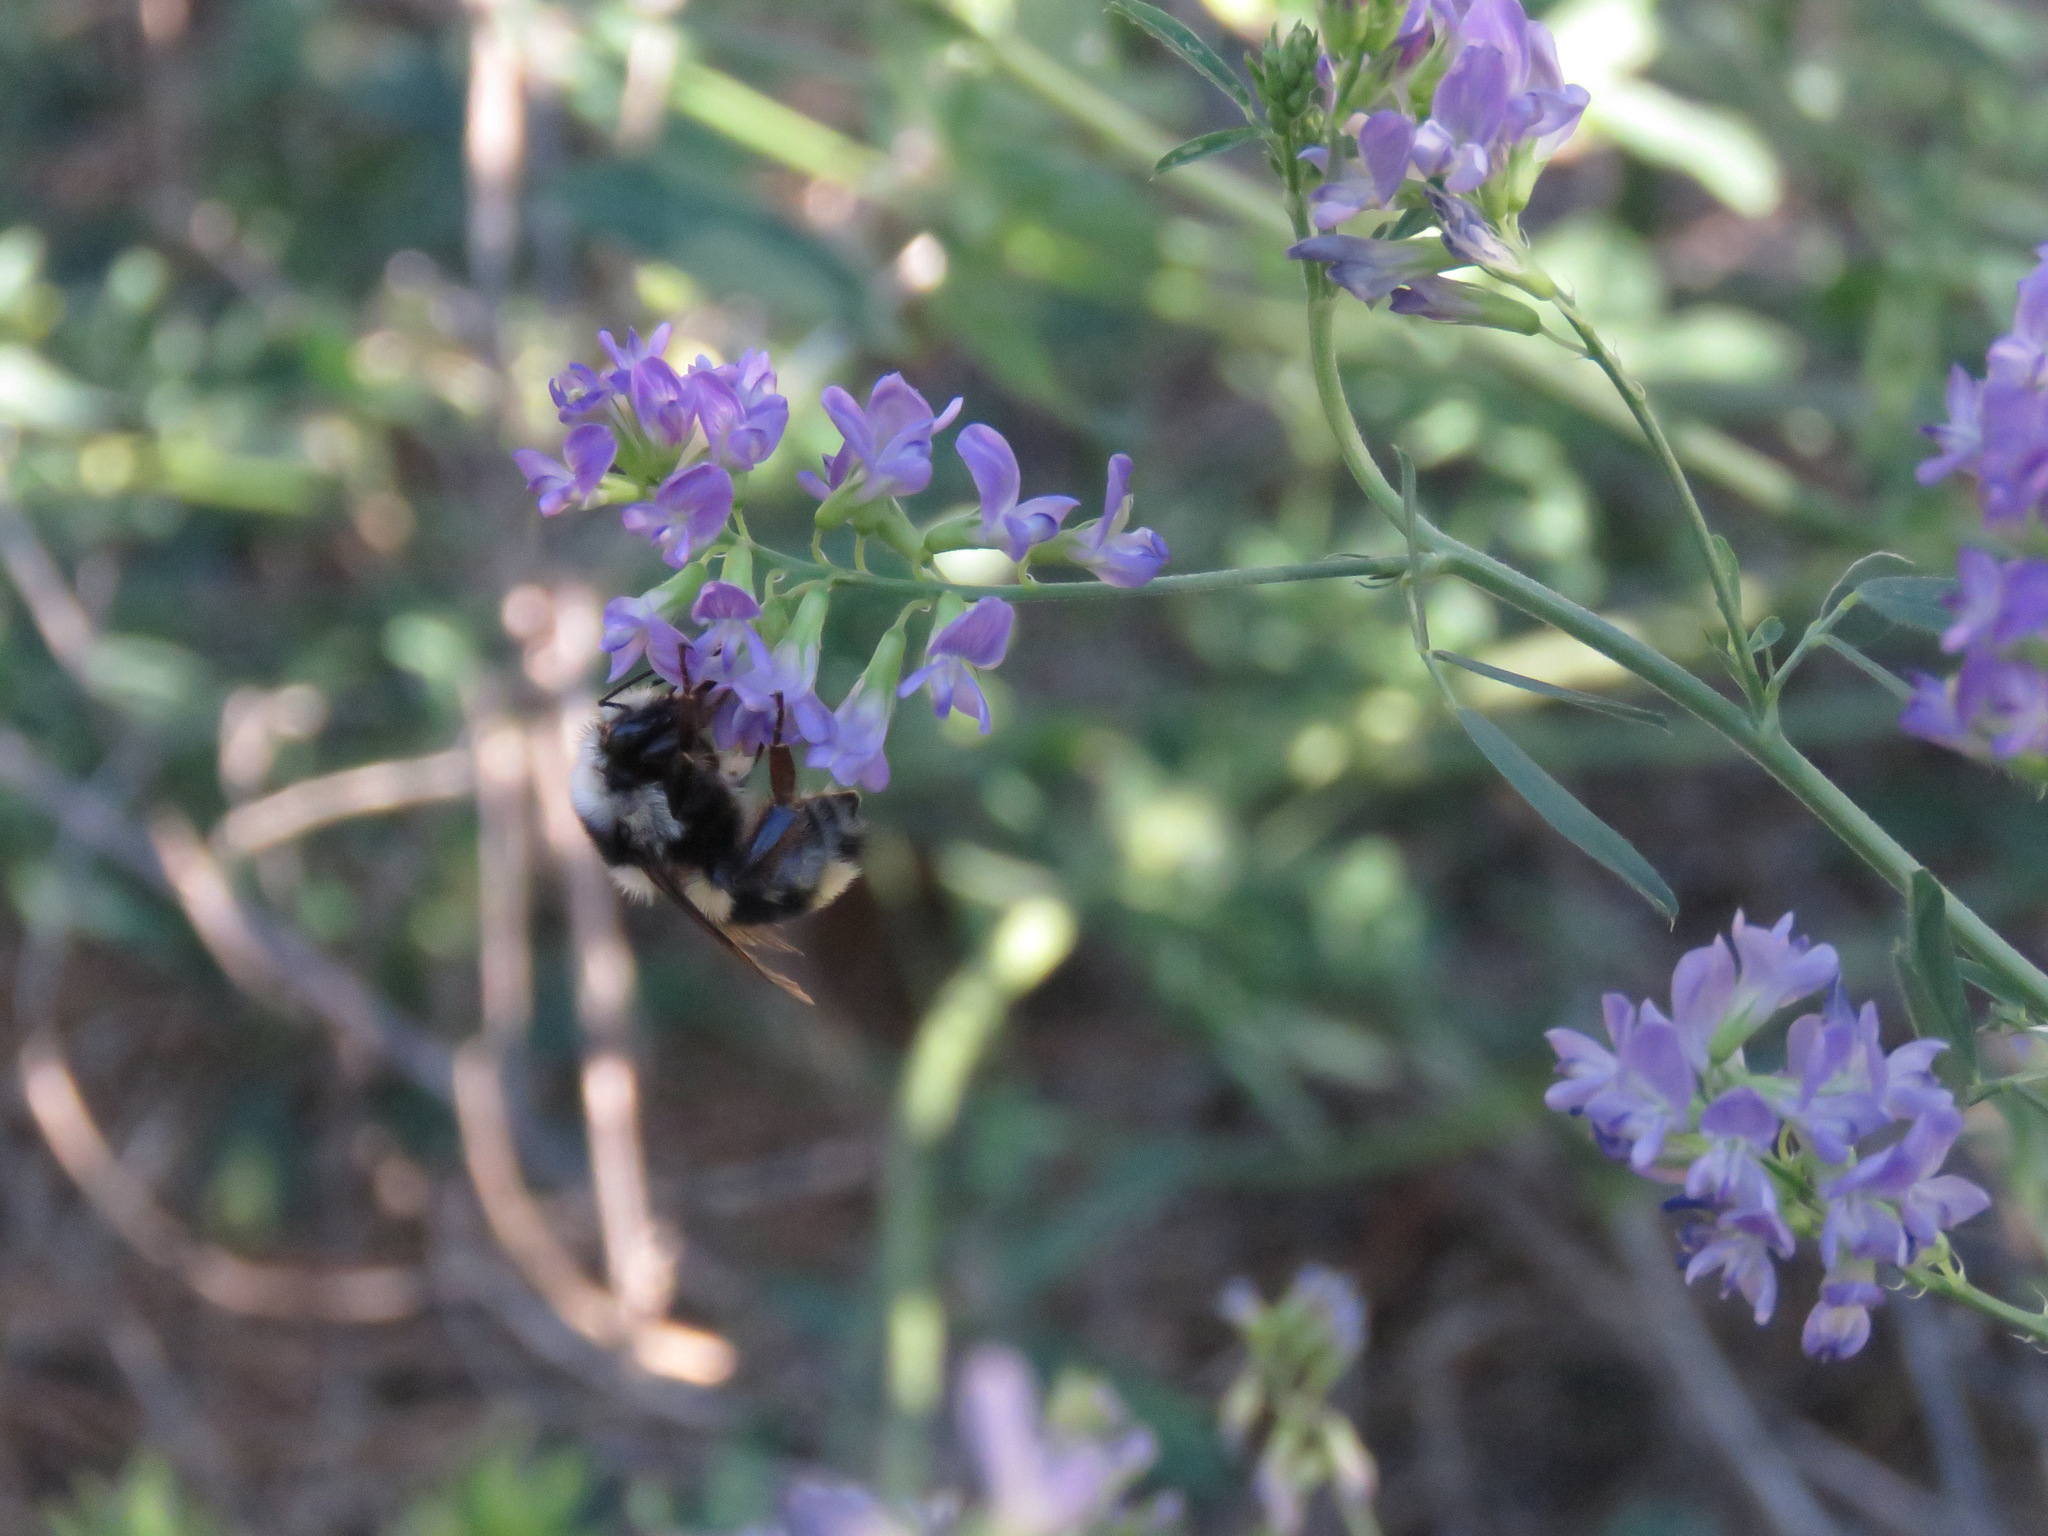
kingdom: Animalia
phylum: Arthropoda
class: Insecta
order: Hymenoptera
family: Apidae
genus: Bombus
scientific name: Bombus vancouverensis
